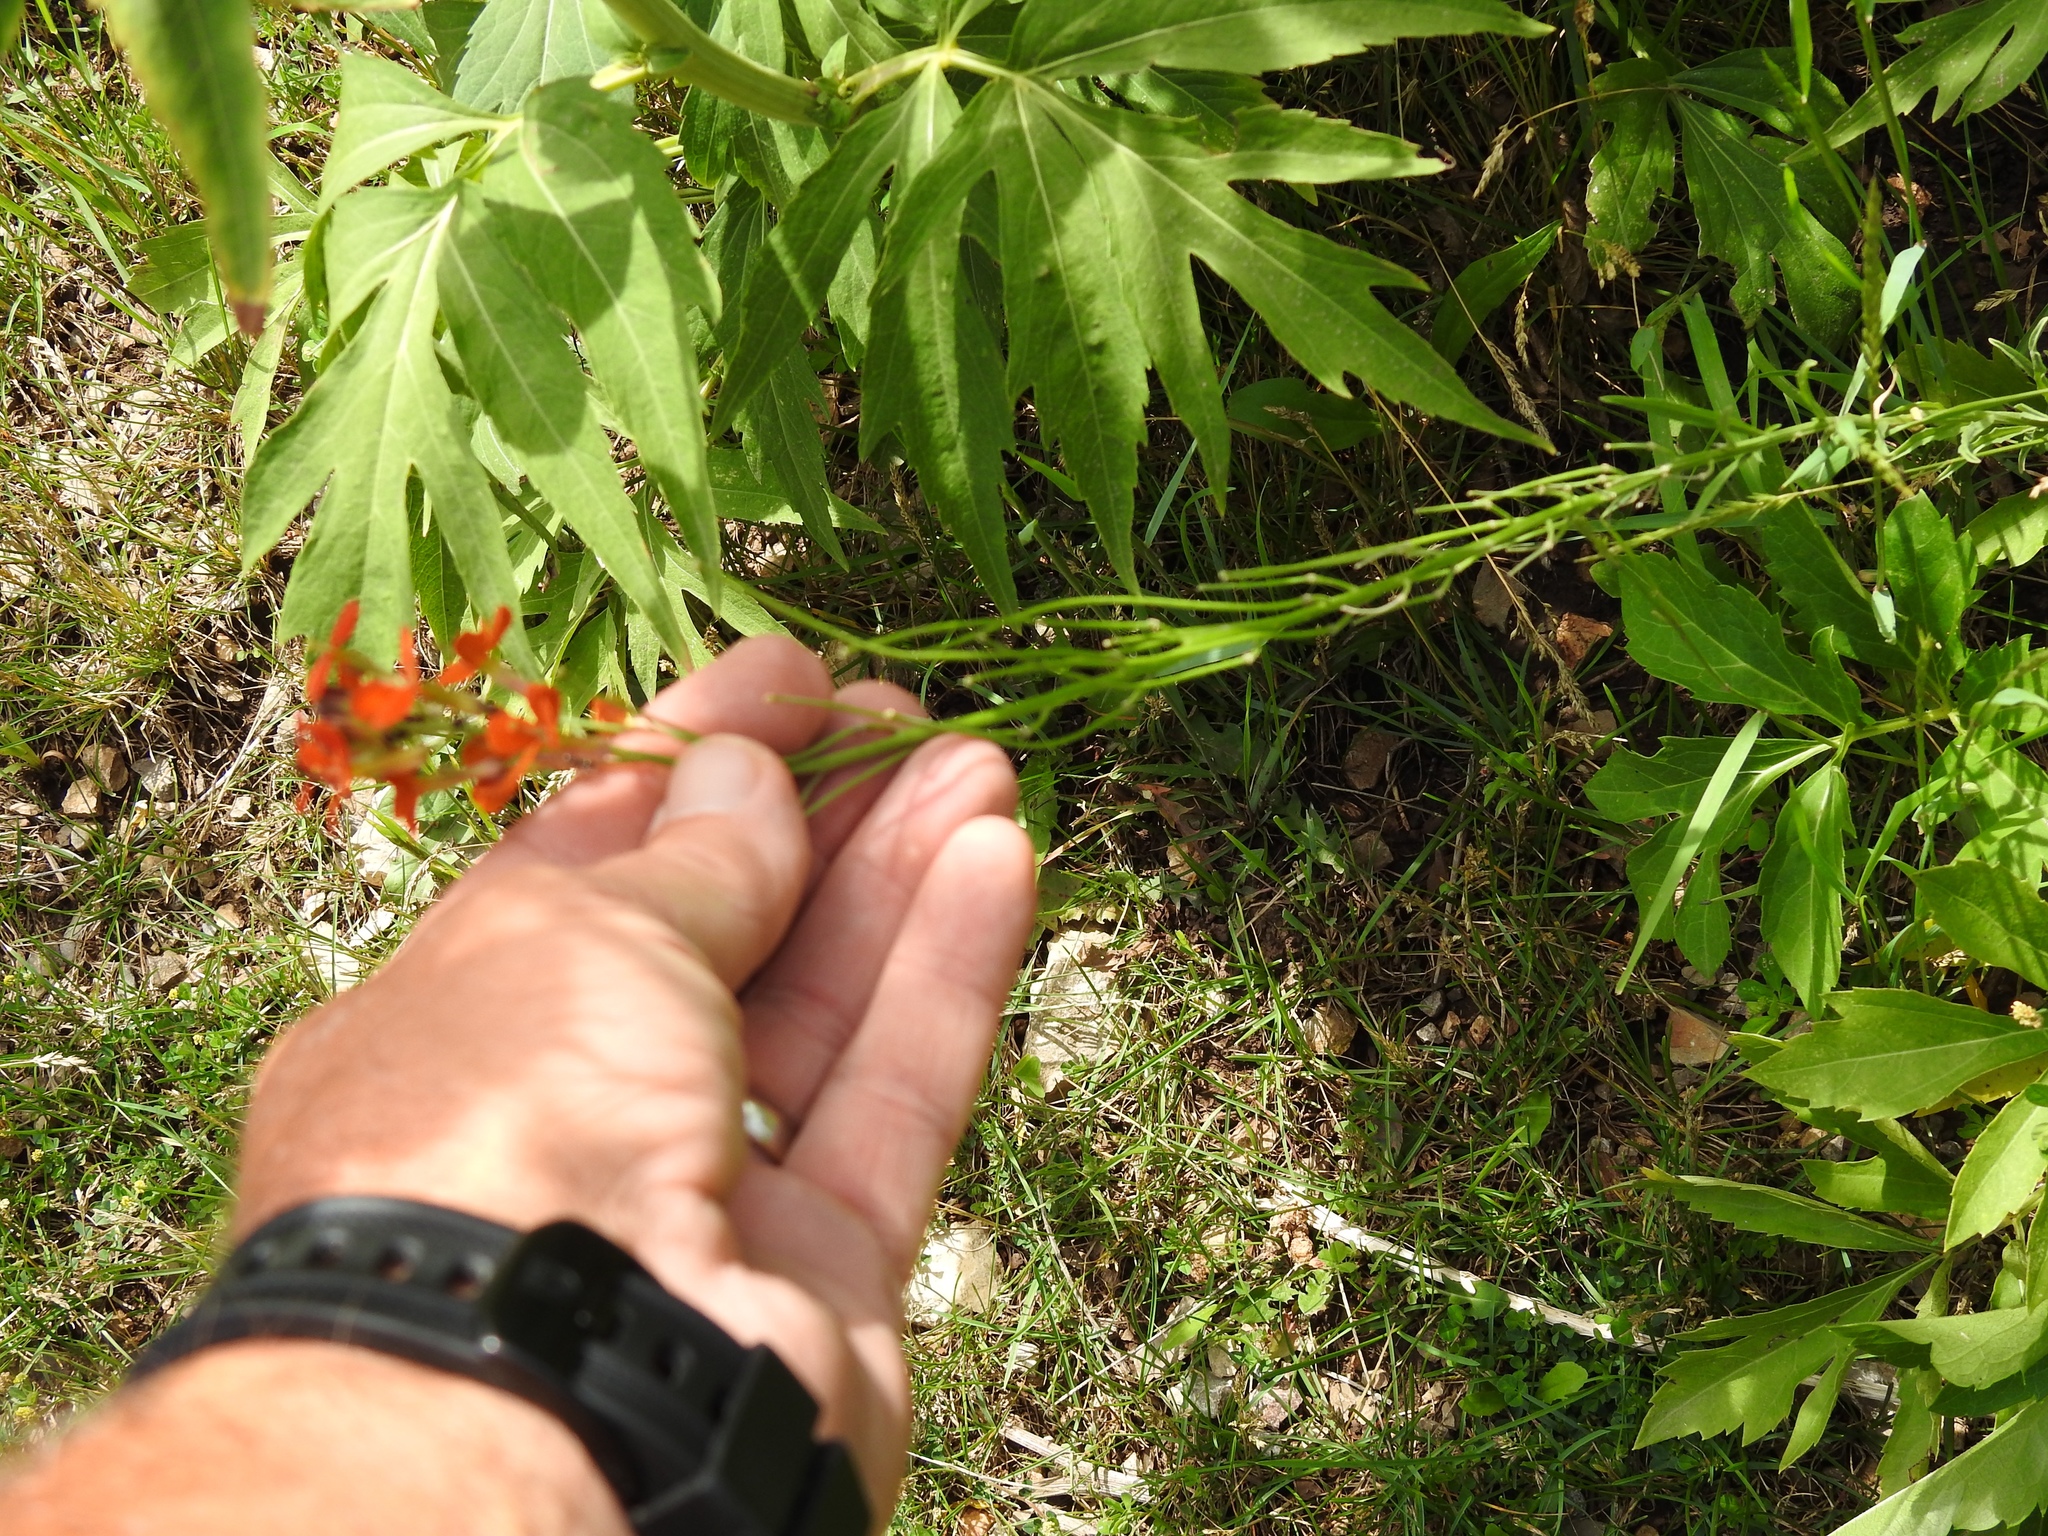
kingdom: Plantae
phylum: Tracheophyta
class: Magnoliopsida
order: Brassicales
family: Brassicaceae
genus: Erysimum
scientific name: Erysimum capitatum
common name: Western wallflower
